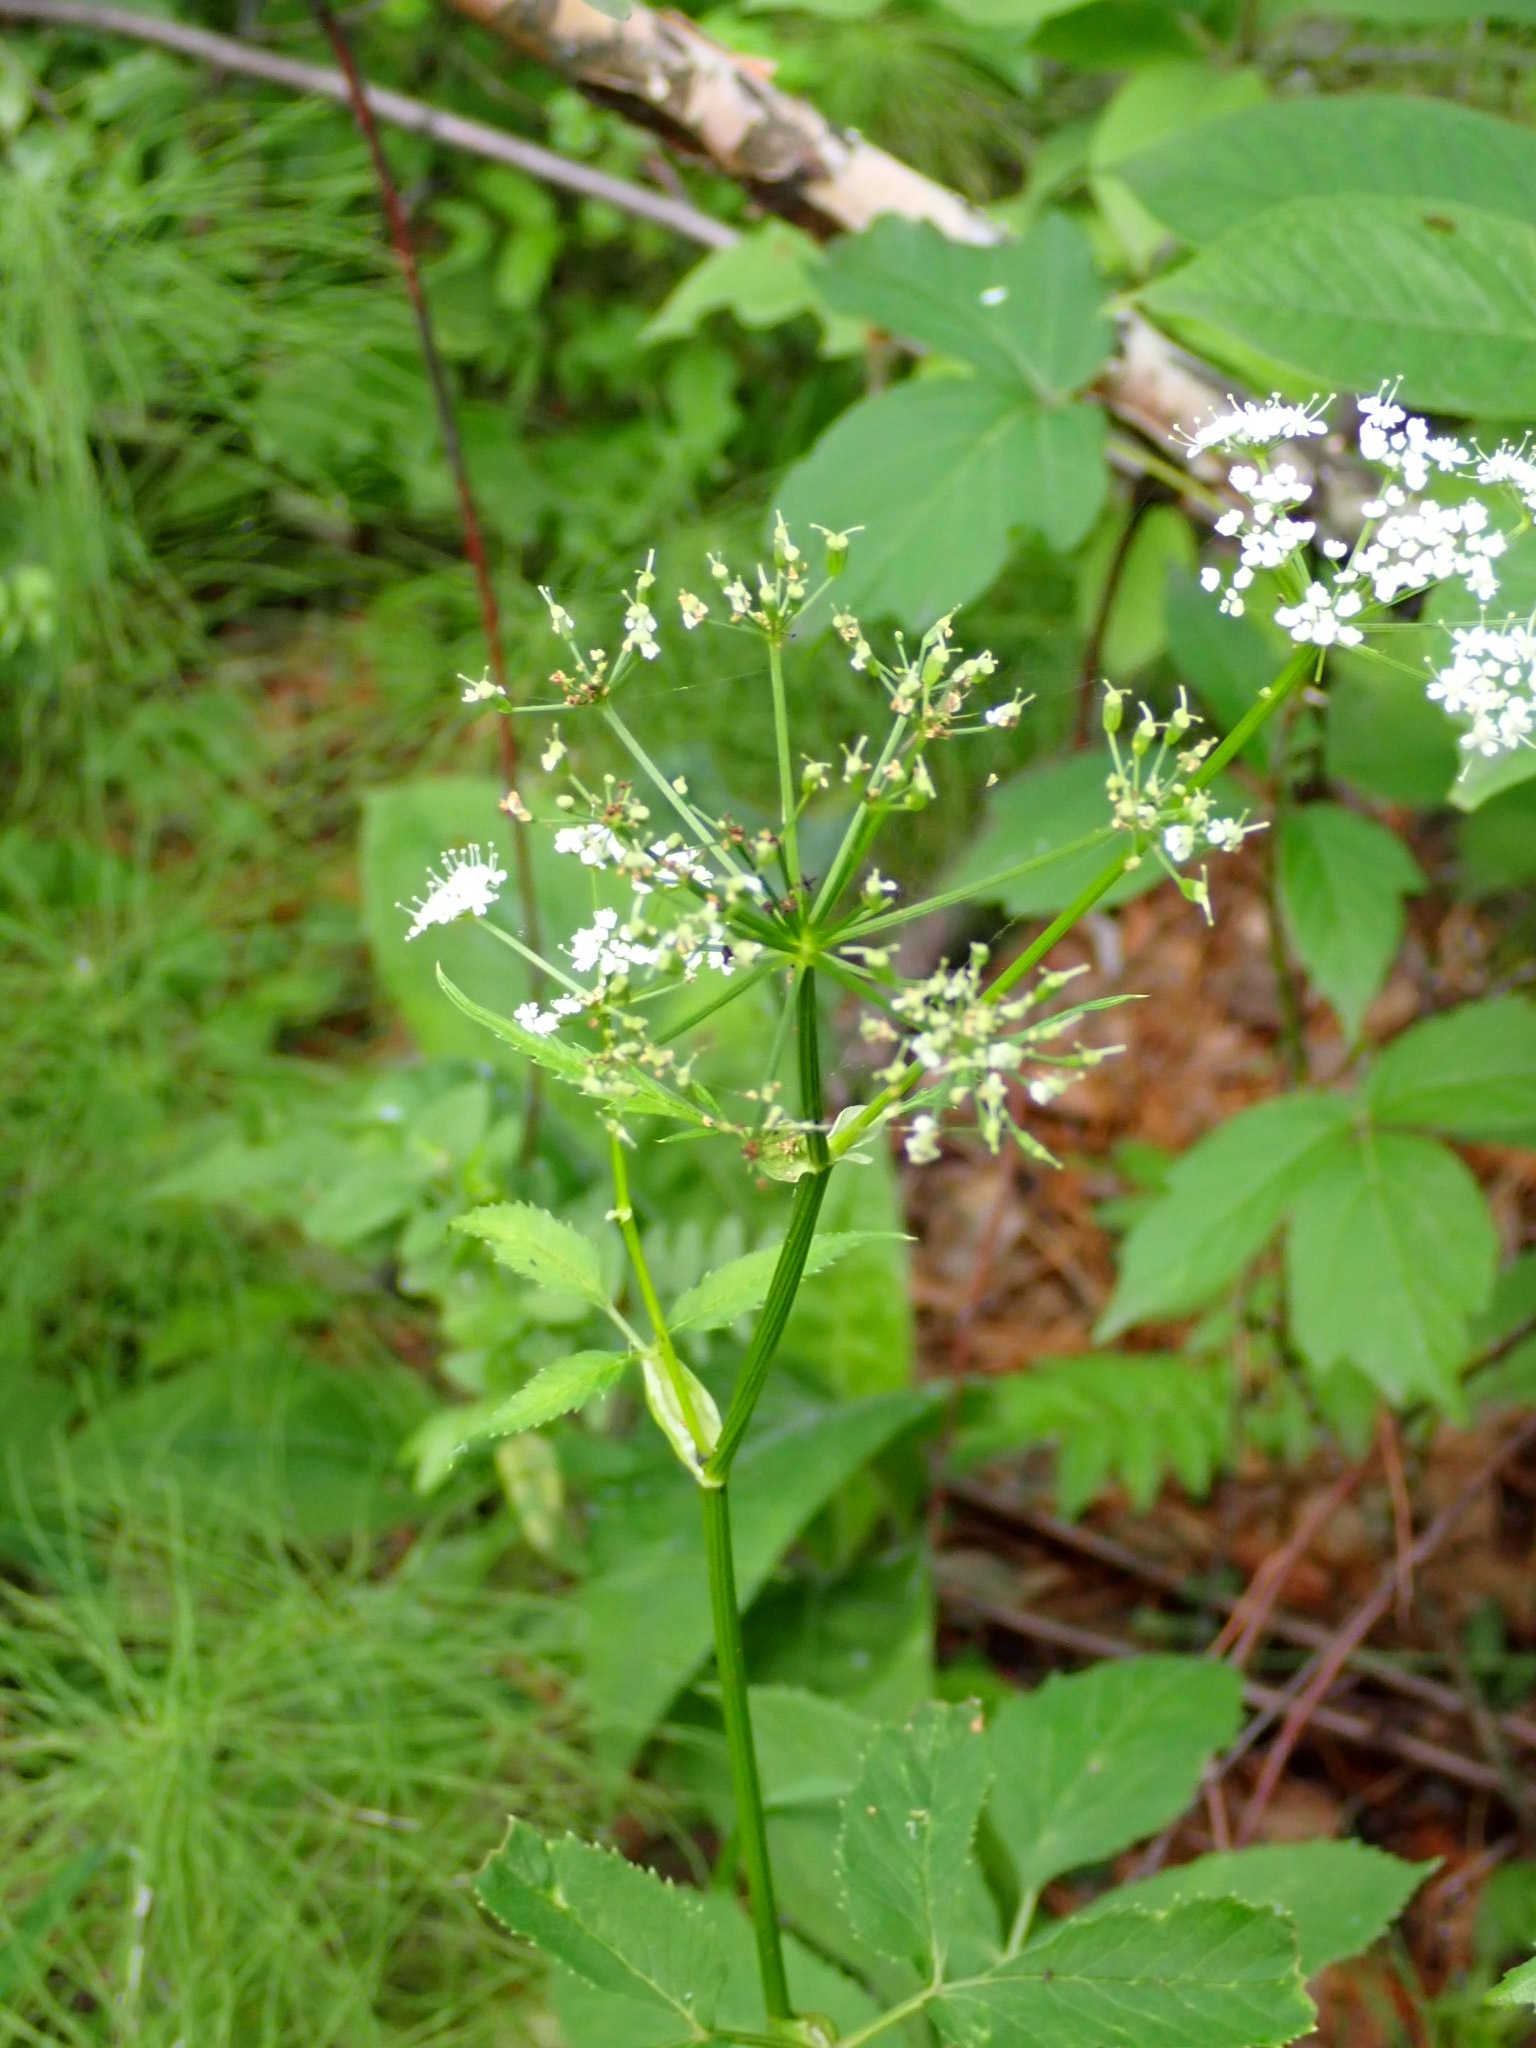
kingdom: Plantae
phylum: Tracheophyta
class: Magnoliopsida
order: Apiales
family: Apiaceae
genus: Aegopodium
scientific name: Aegopodium podagraria
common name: Ground-elder
